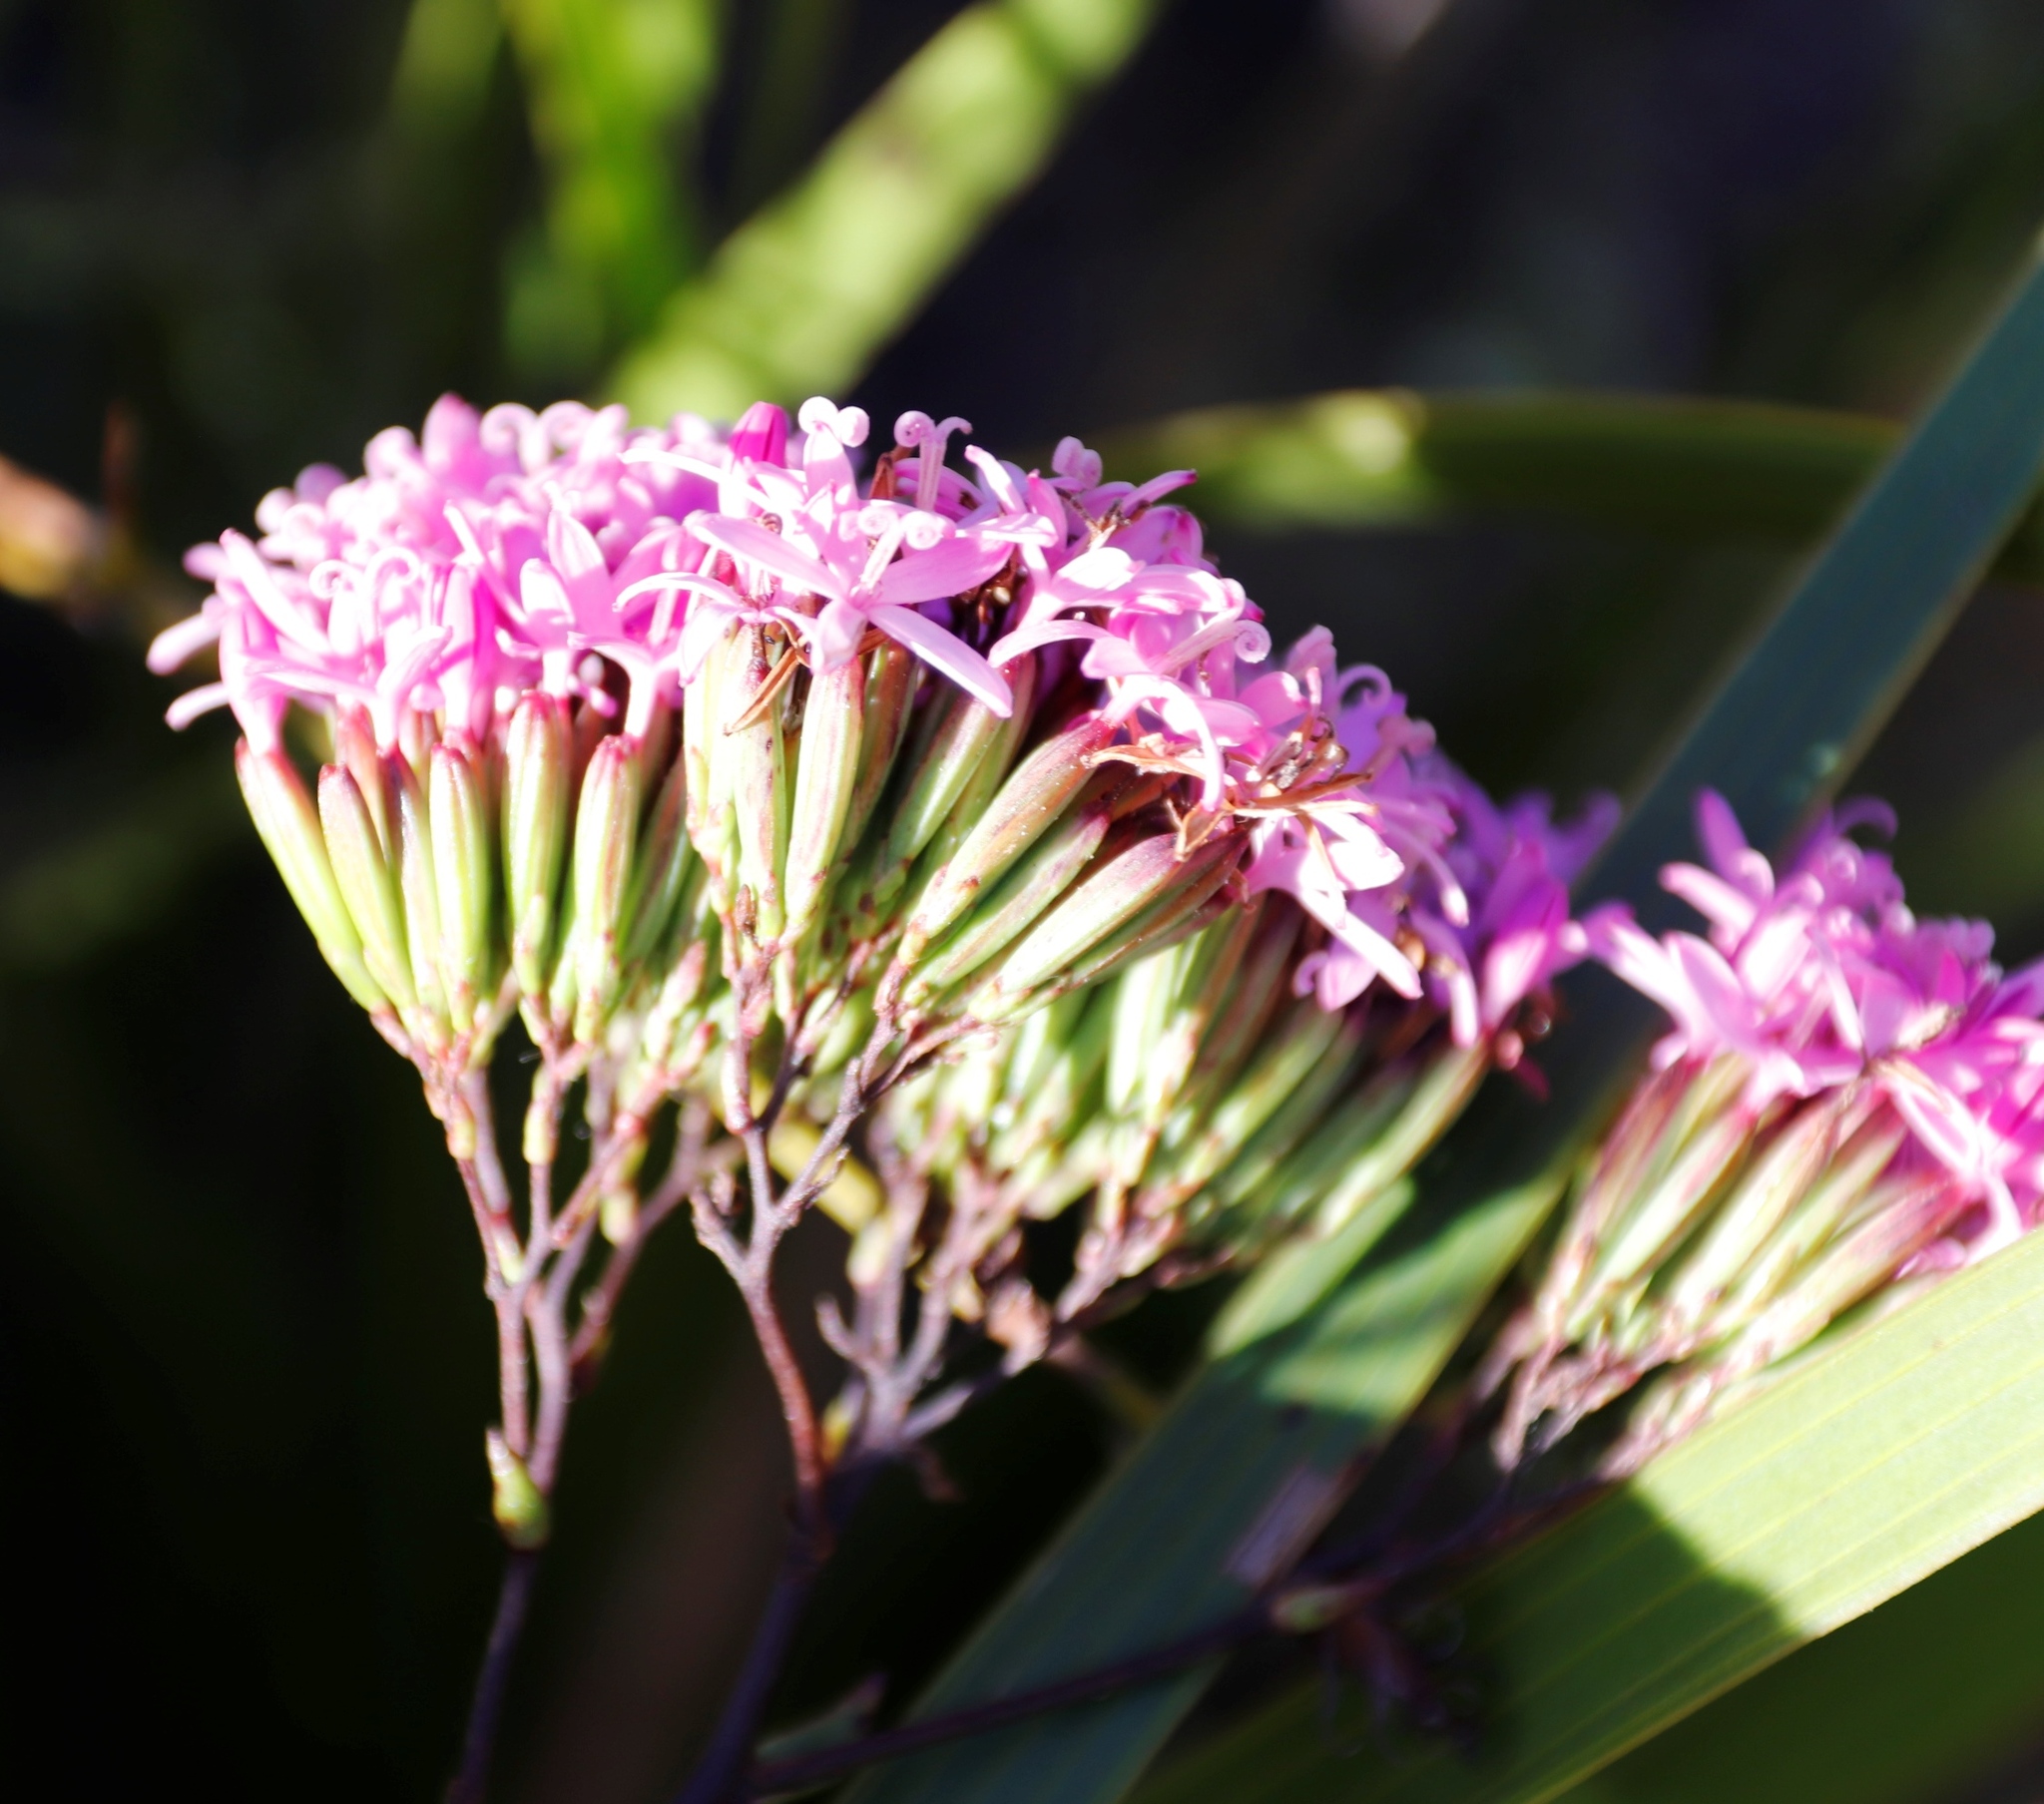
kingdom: Plantae
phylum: Tracheophyta
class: Magnoliopsida
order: Asterales
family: Asteraceae
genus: Corymbium
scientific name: Corymbium glabrum
